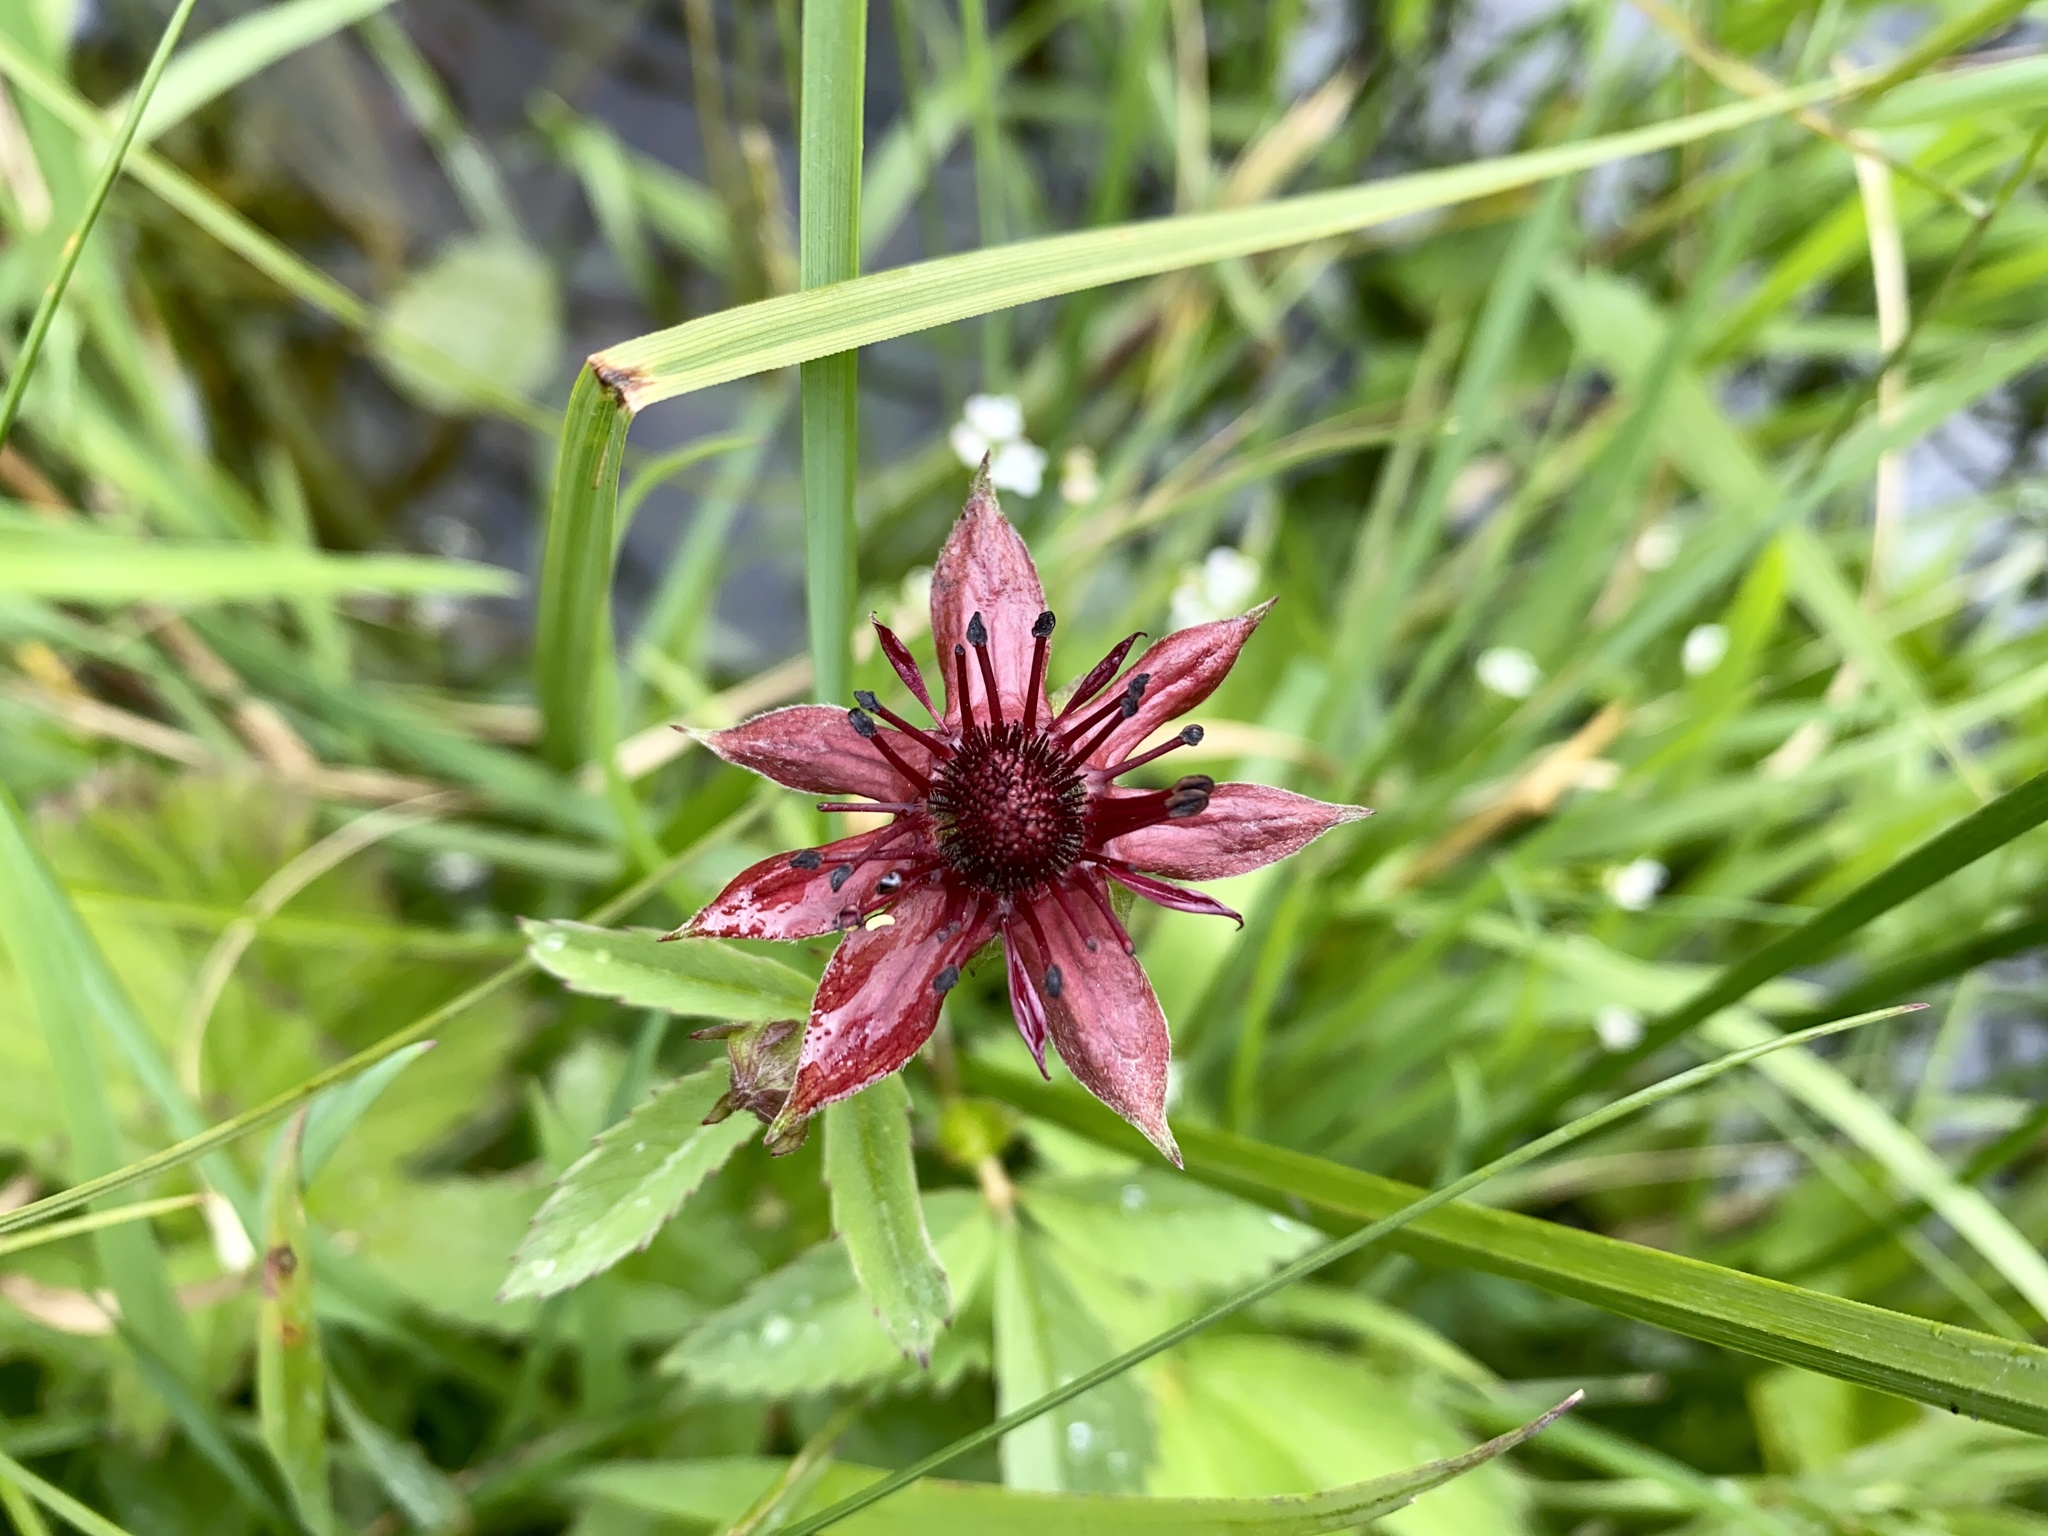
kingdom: Plantae
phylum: Tracheophyta
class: Magnoliopsida
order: Rosales
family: Rosaceae
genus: Comarum
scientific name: Comarum palustre
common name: Marsh cinquefoil
